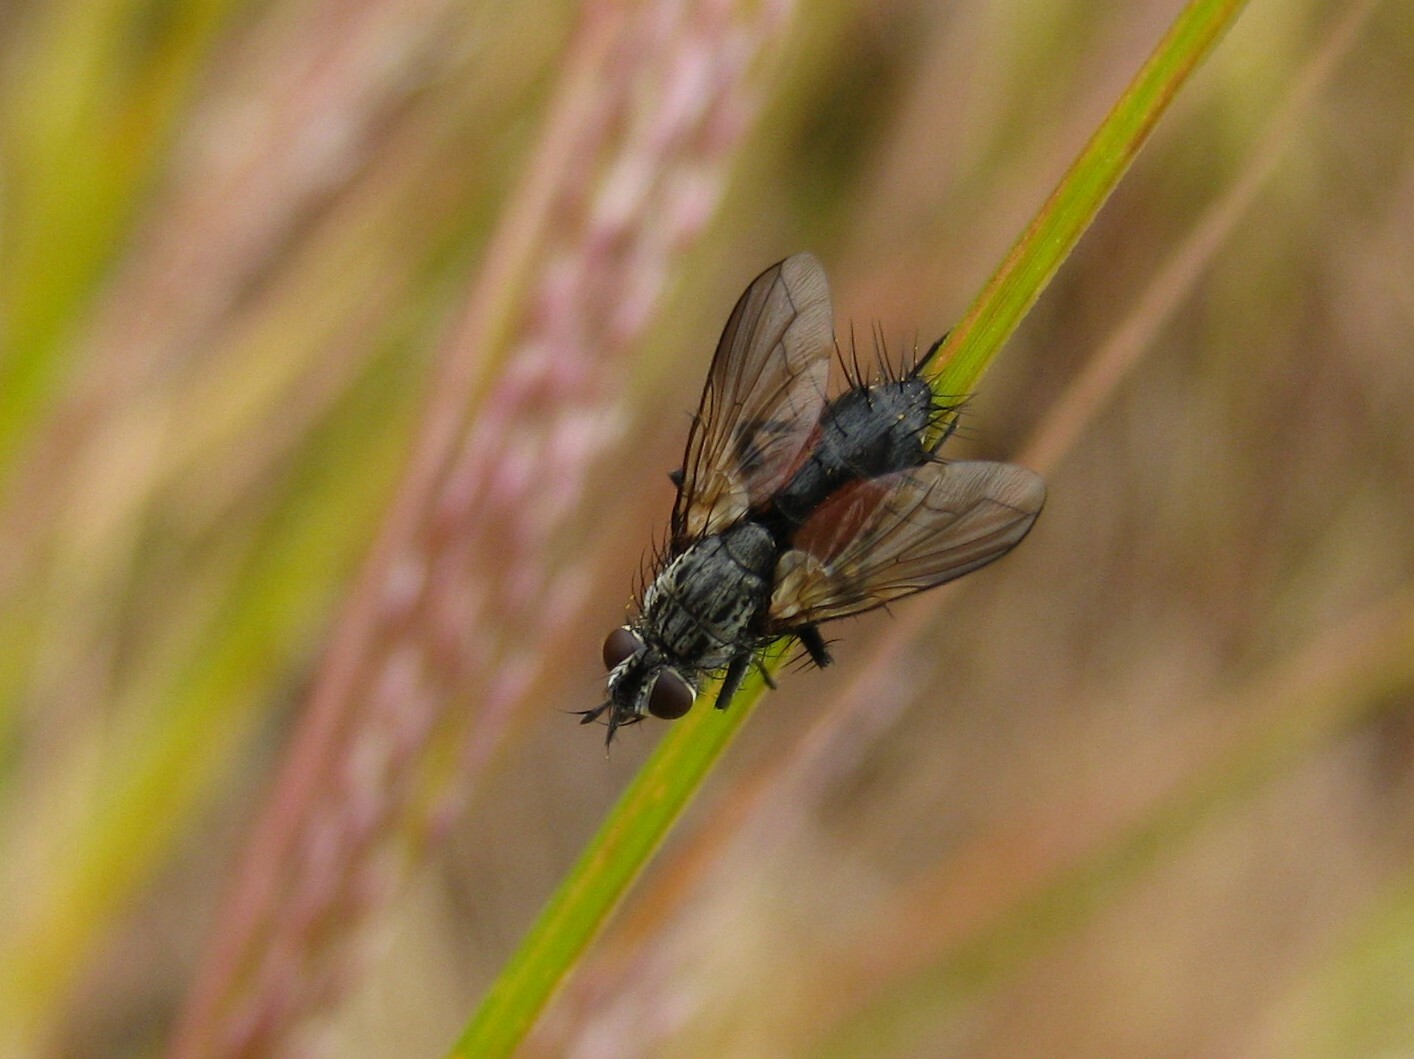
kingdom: Animalia
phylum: Arthropoda
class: Insecta
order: Diptera
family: Tachinidae
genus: Eriothrix
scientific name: Eriothrix rufomaculatus
